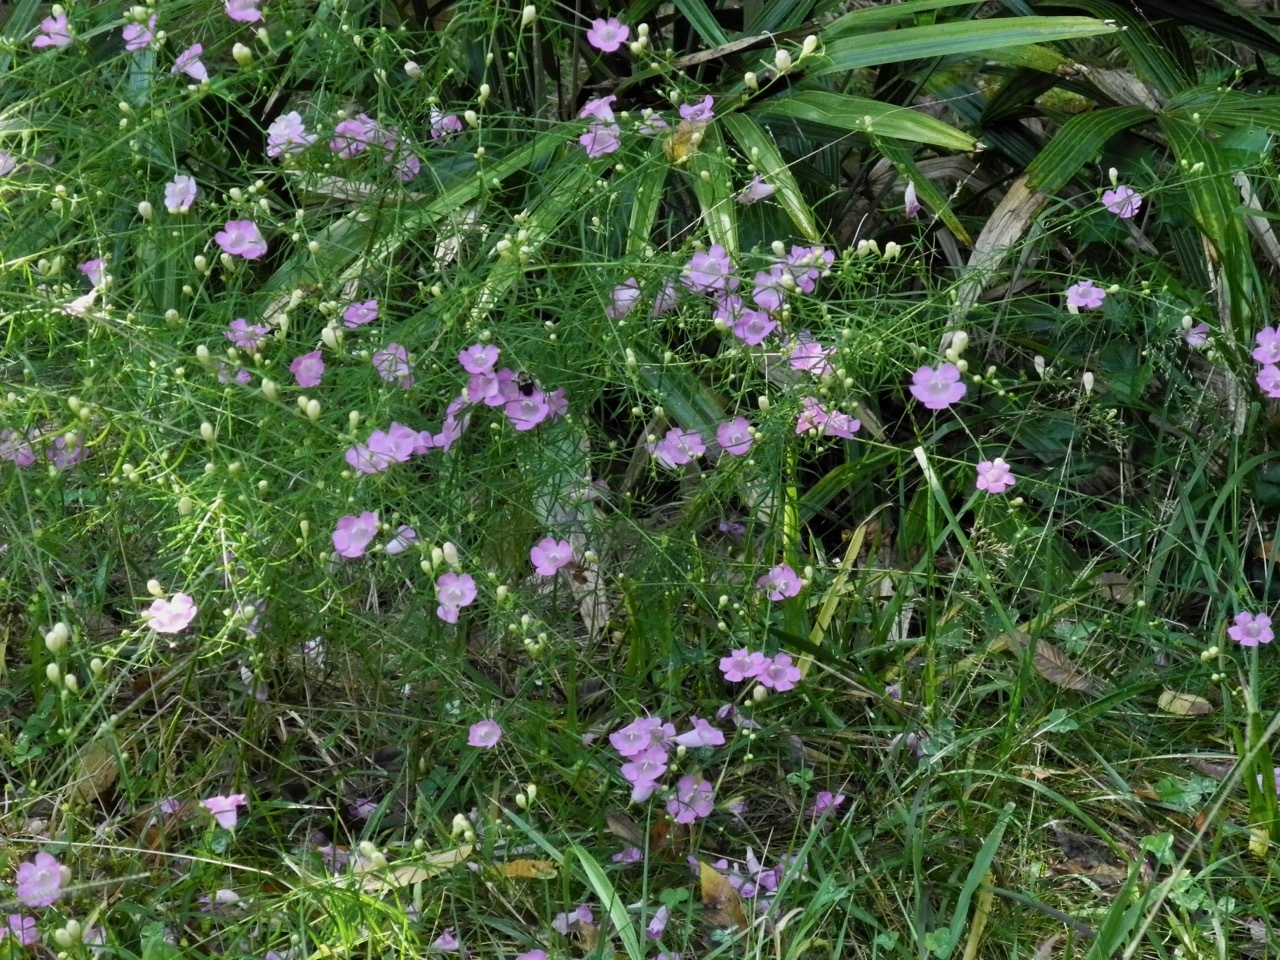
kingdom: Plantae
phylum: Tracheophyta
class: Magnoliopsida
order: Lamiales
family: Orobanchaceae
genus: Agalinis
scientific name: Agalinis
